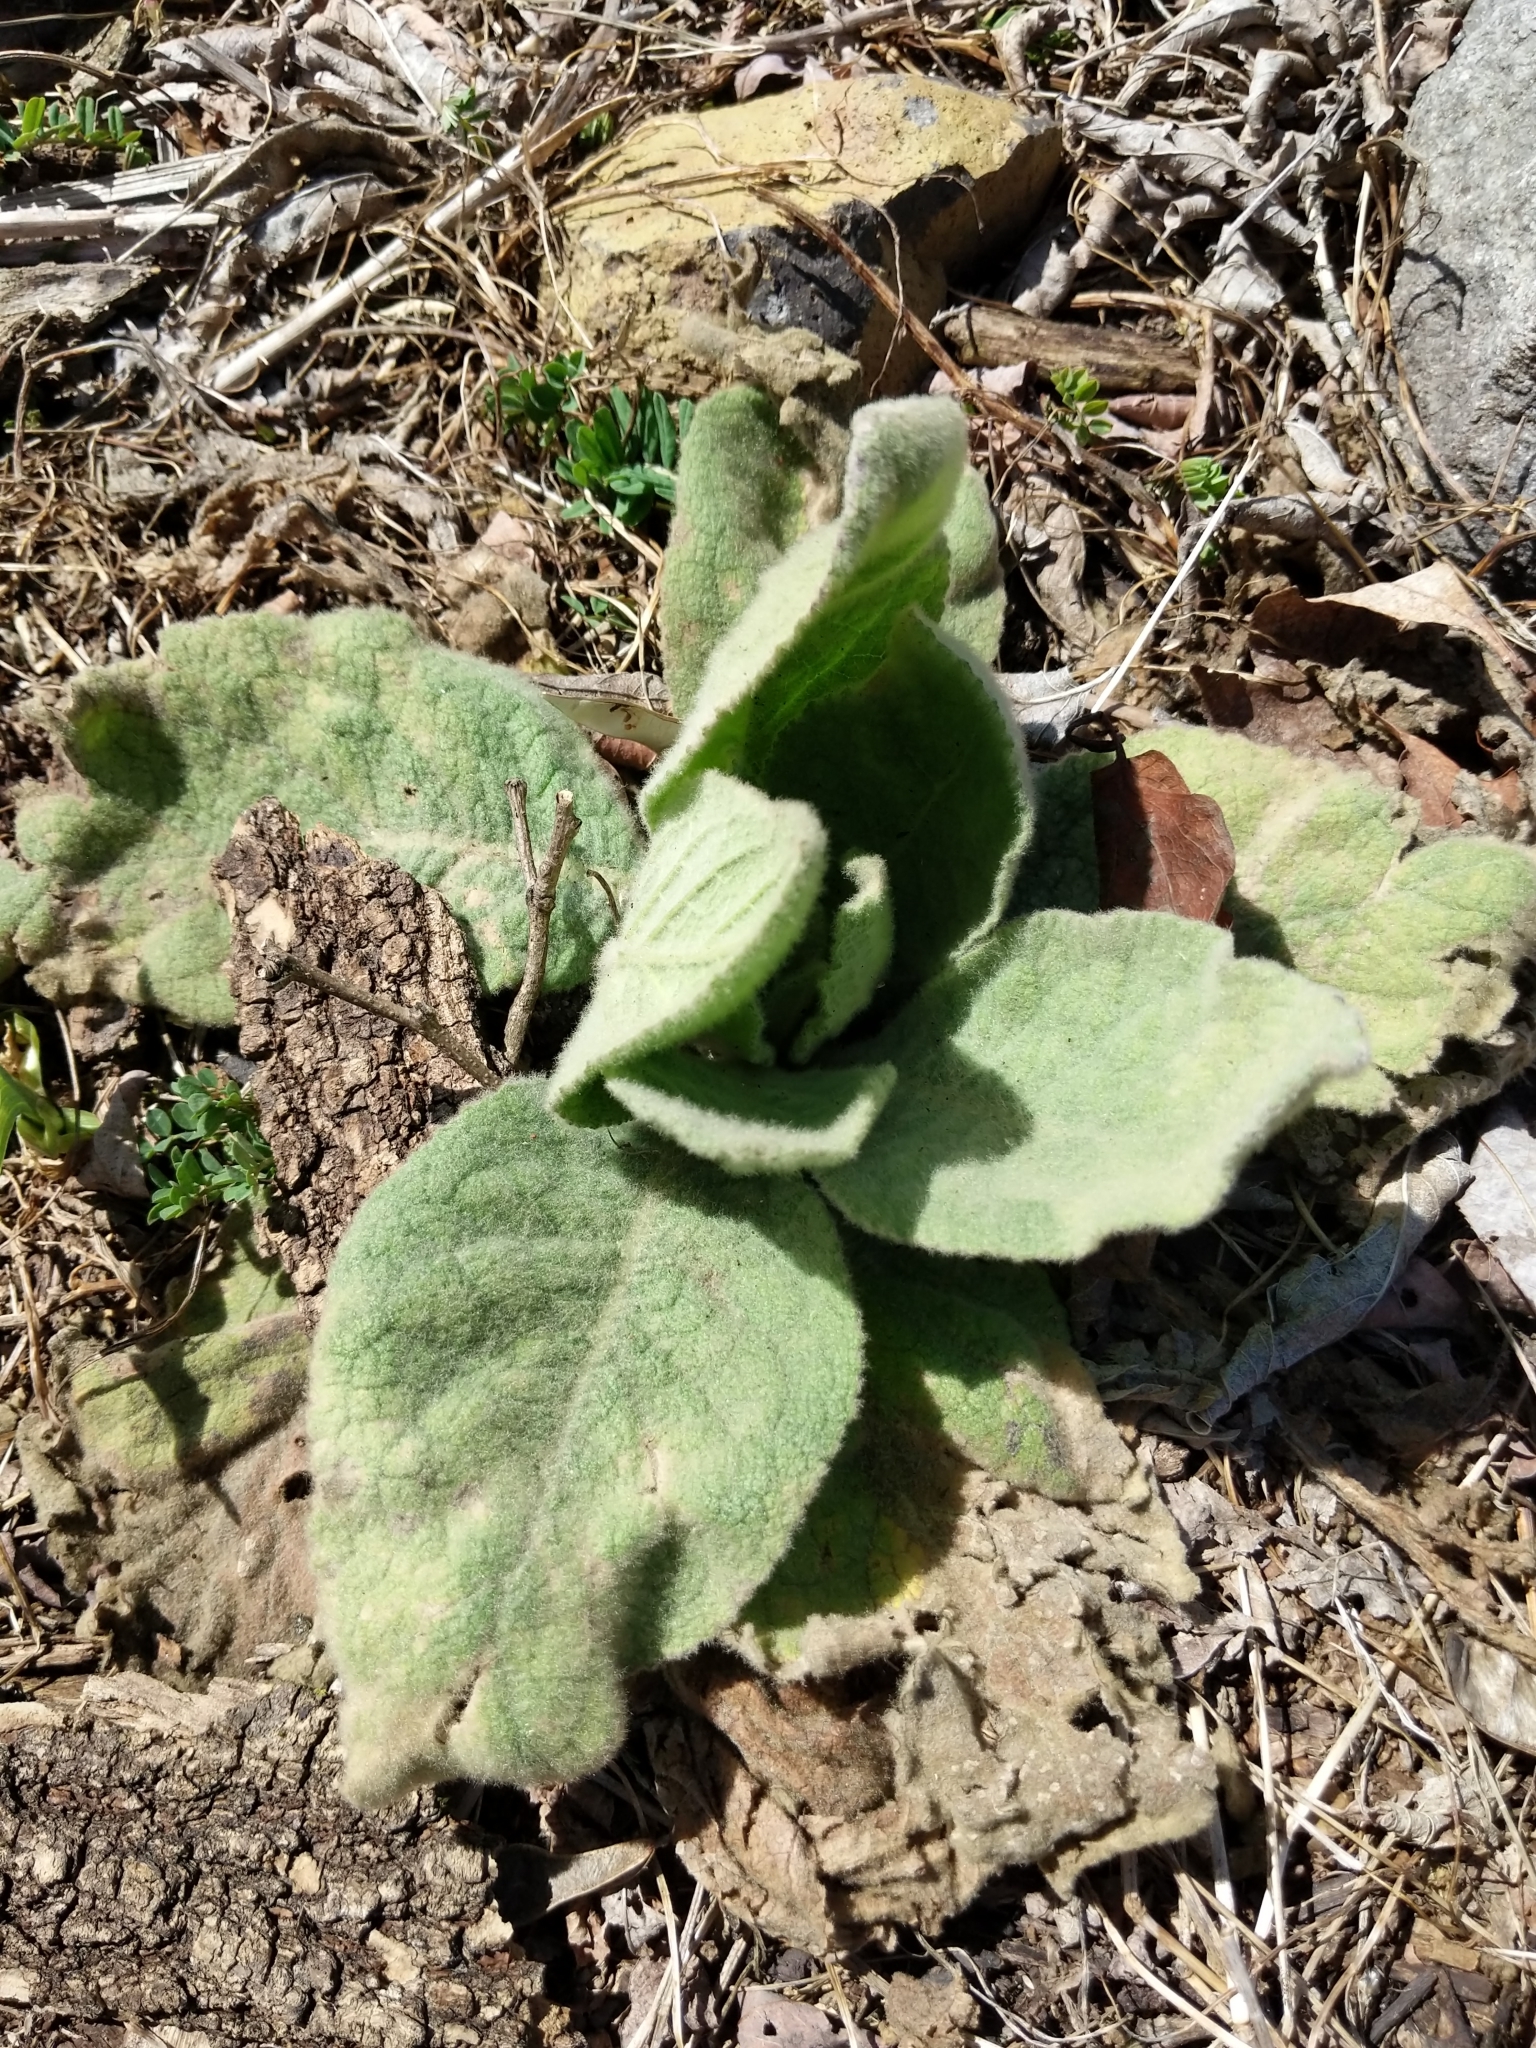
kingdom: Plantae
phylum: Tracheophyta
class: Magnoliopsida
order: Lamiales
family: Scrophulariaceae
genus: Verbascum
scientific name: Verbascum thapsus
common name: Common mullein
